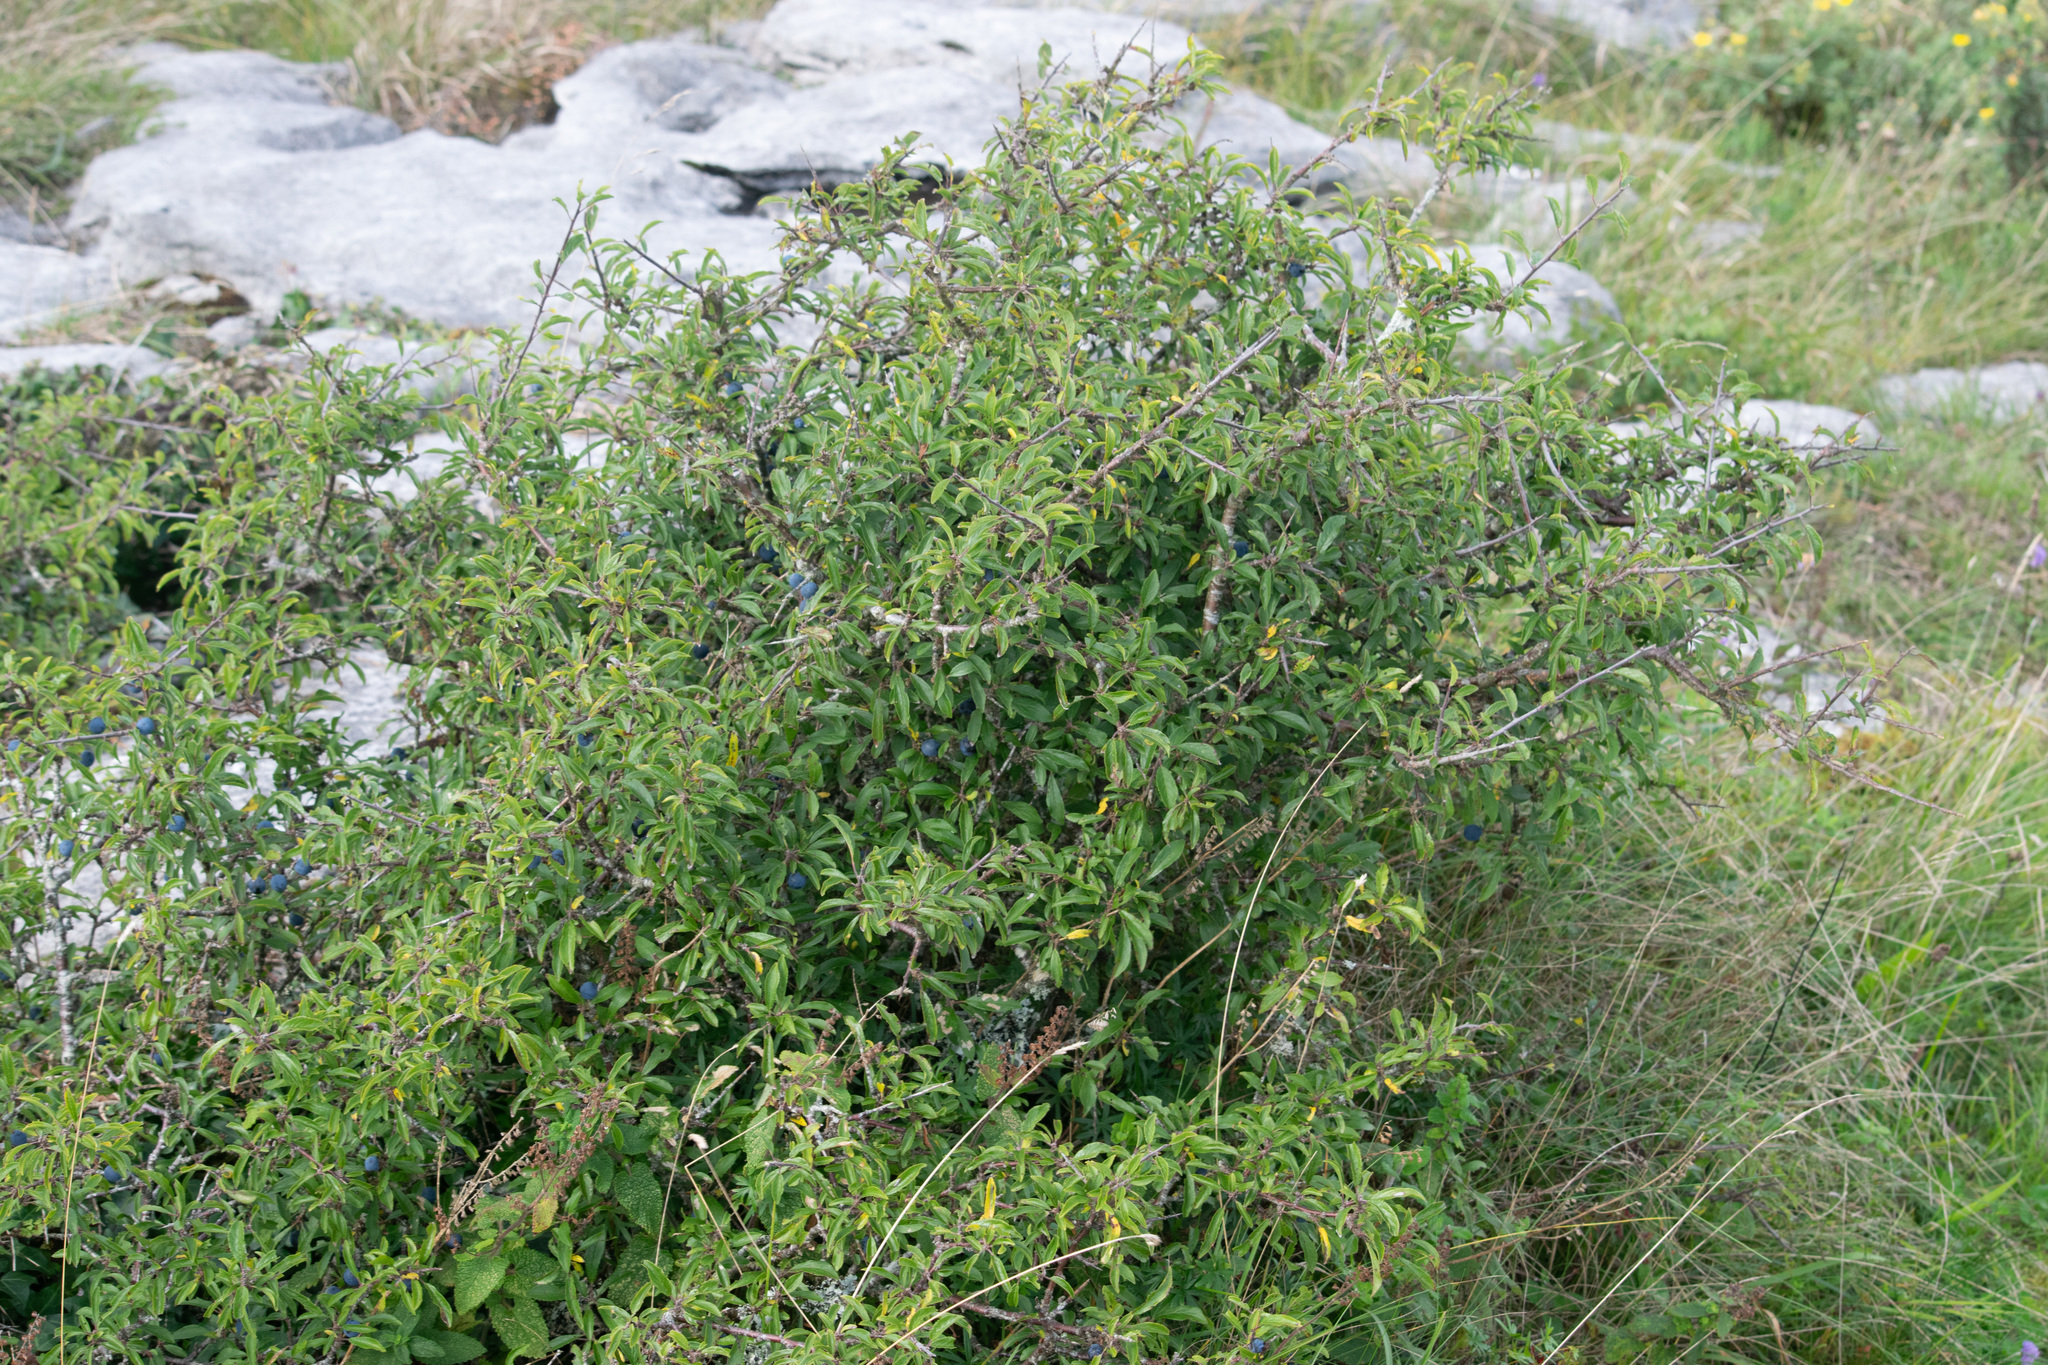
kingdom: Plantae
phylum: Tracheophyta
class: Magnoliopsida
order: Rosales
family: Rosaceae
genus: Prunus
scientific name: Prunus spinosa
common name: Blackthorn
